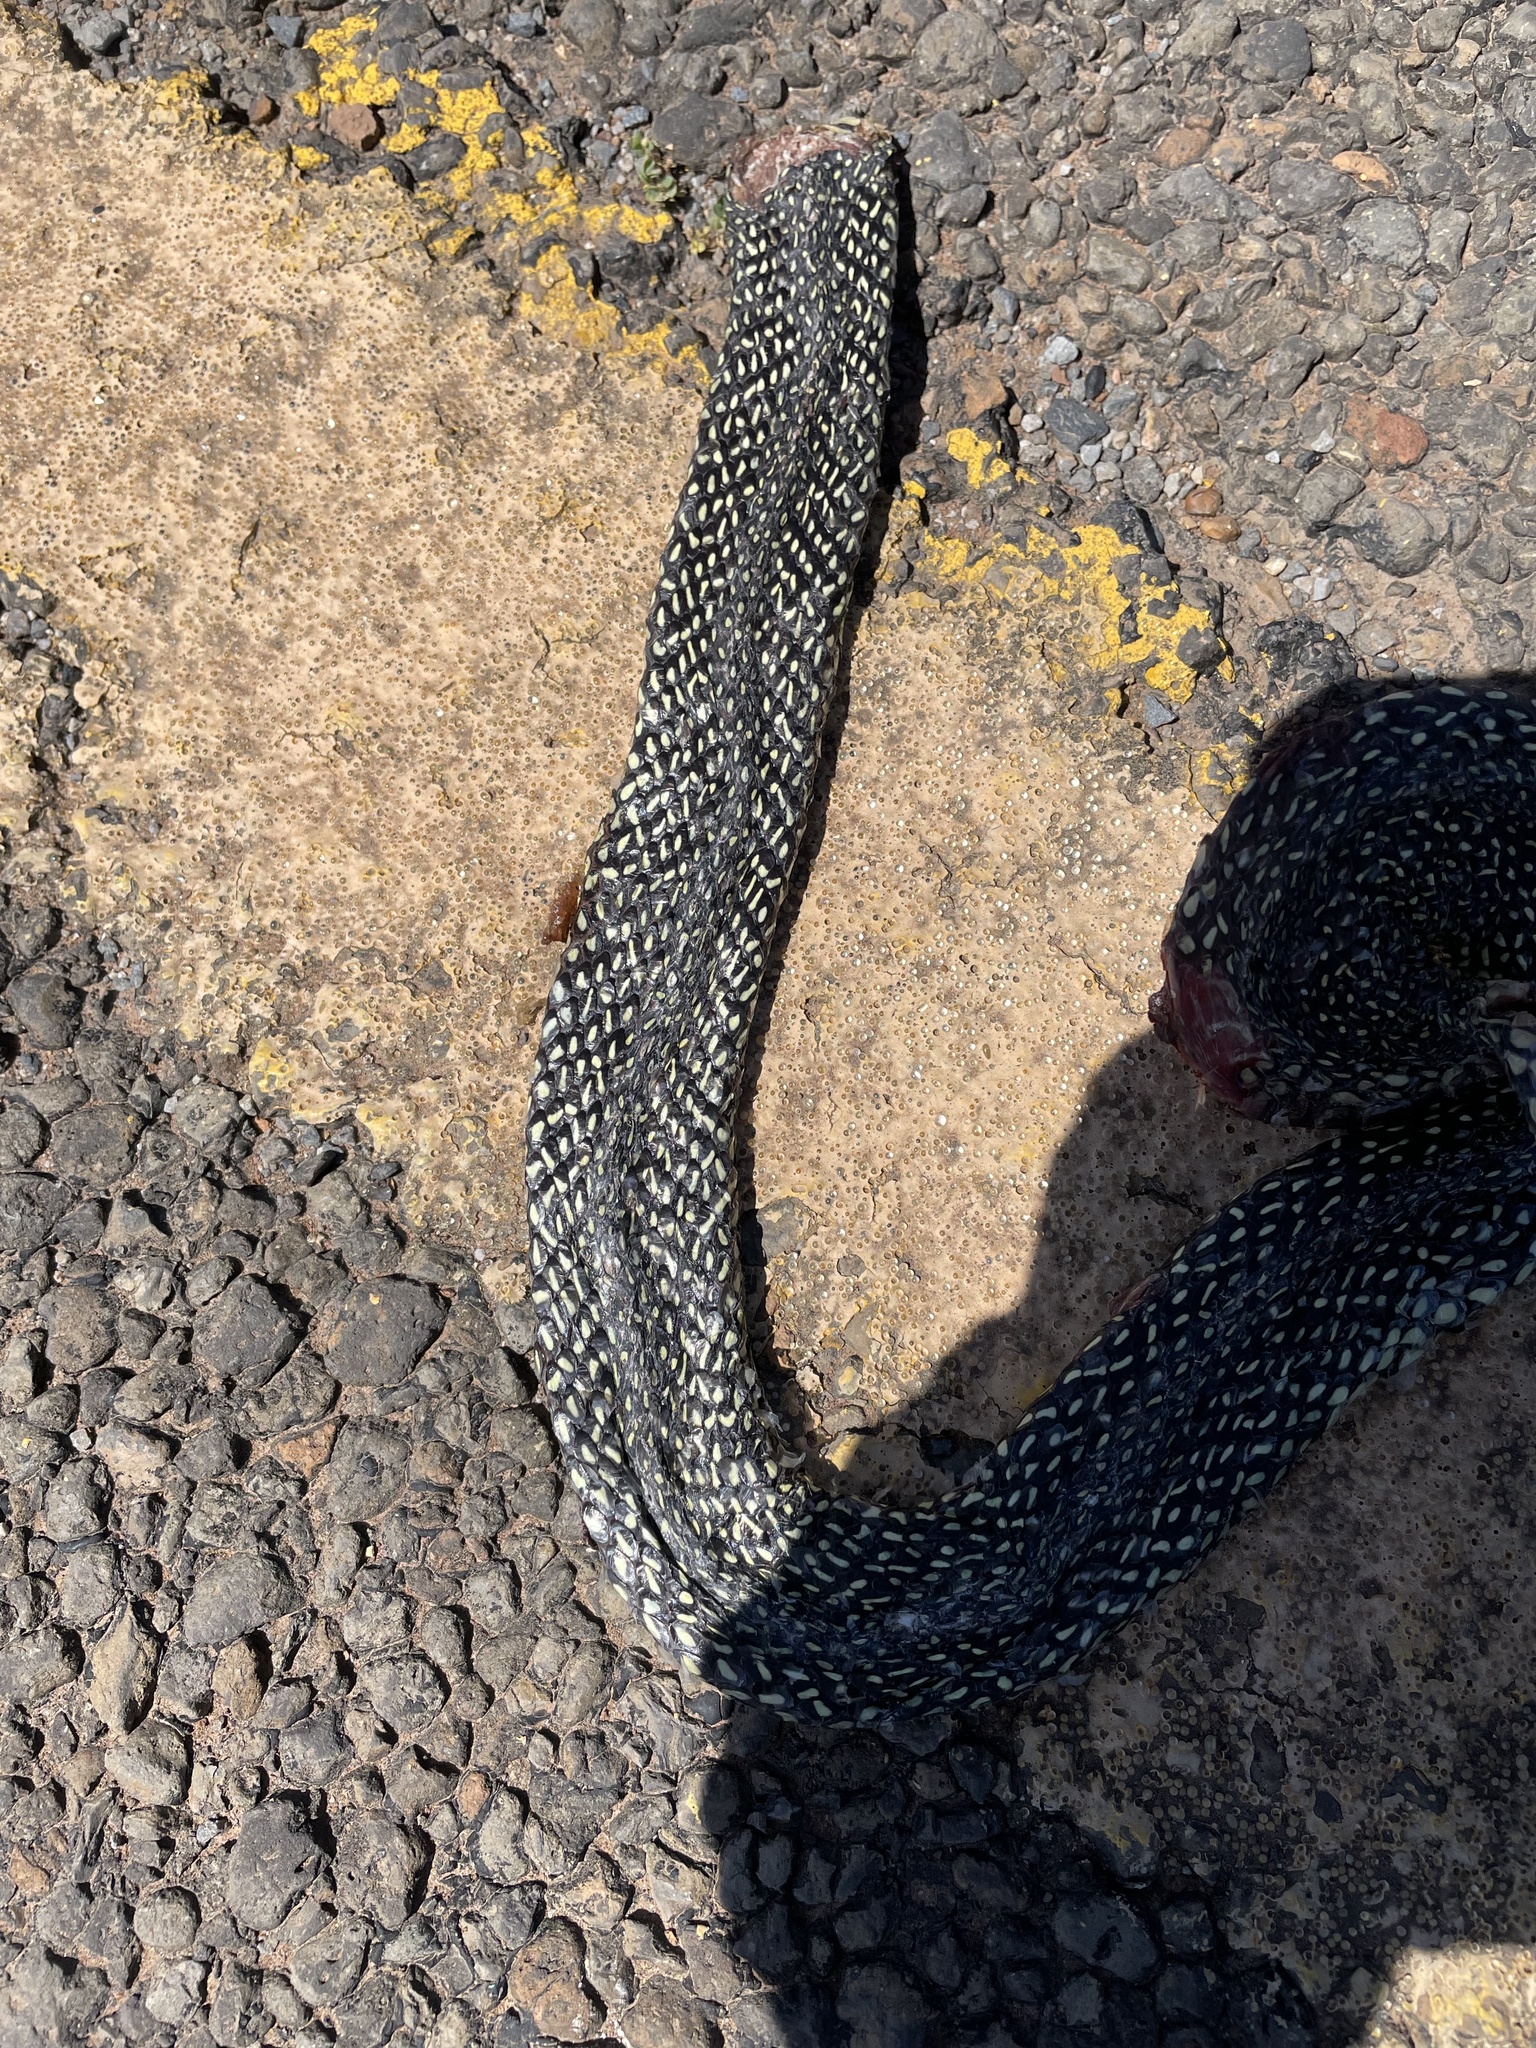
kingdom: Animalia
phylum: Chordata
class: Squamata
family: Colubridae
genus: Lampropeltis
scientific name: Lampropeltis holbrooki
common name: Speckled kingsnake
